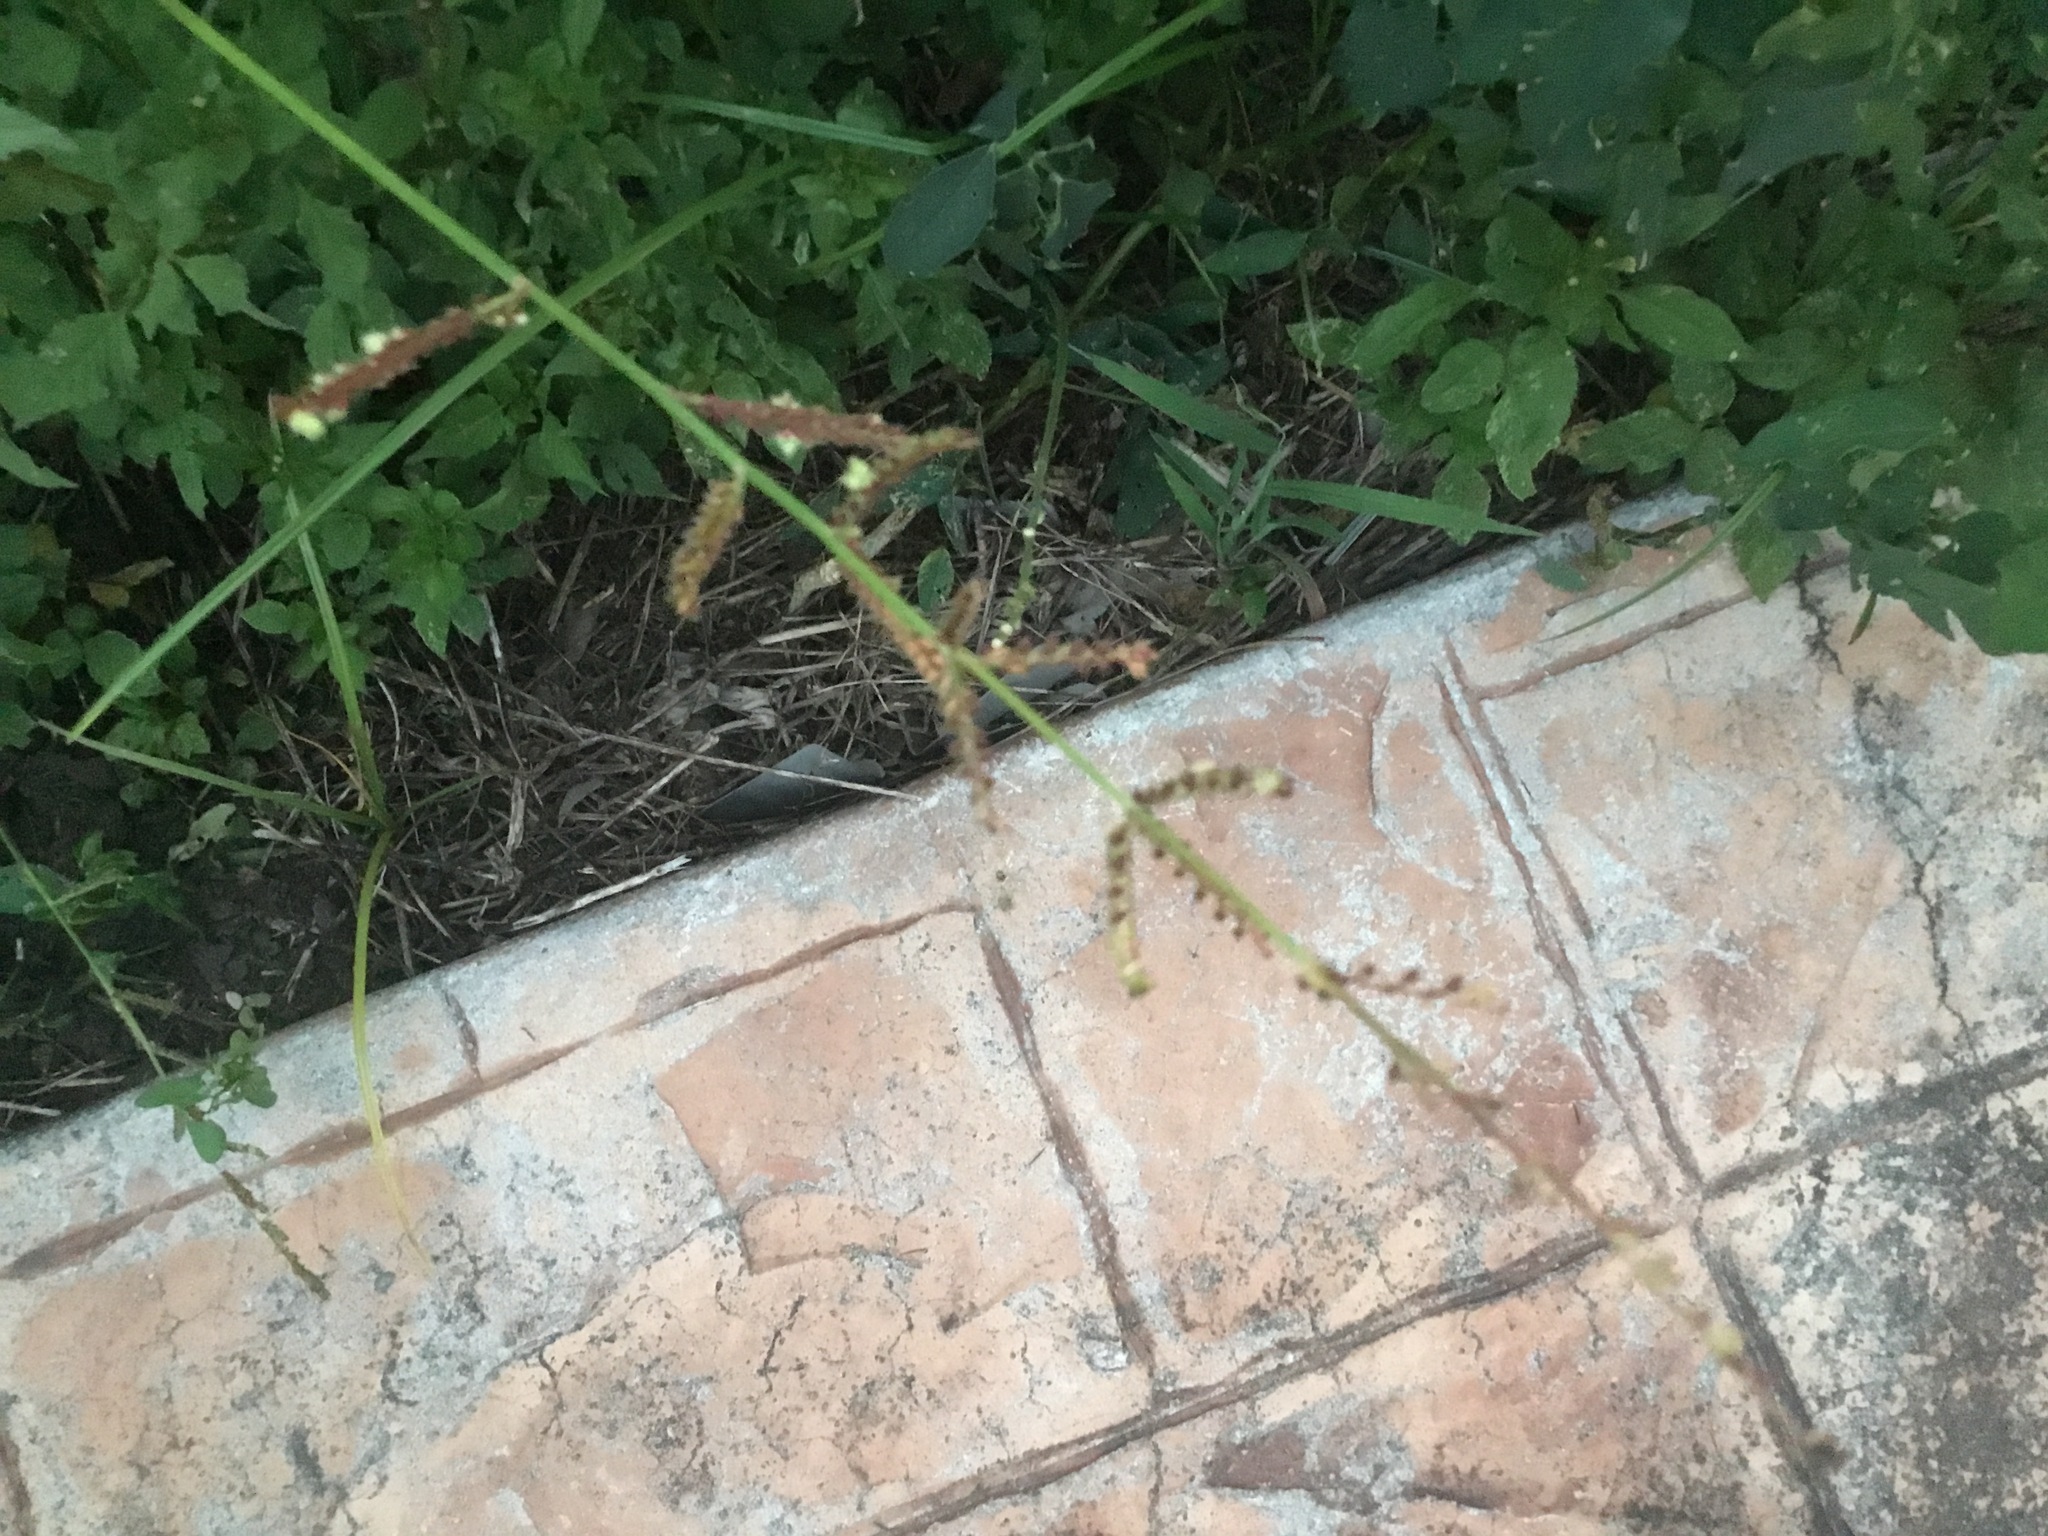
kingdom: Plantae
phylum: Tracheophyta
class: Liliopsida
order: Poales
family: Poaceae
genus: Echinochloa
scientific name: Echinochloa colonum
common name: Jungle rice
